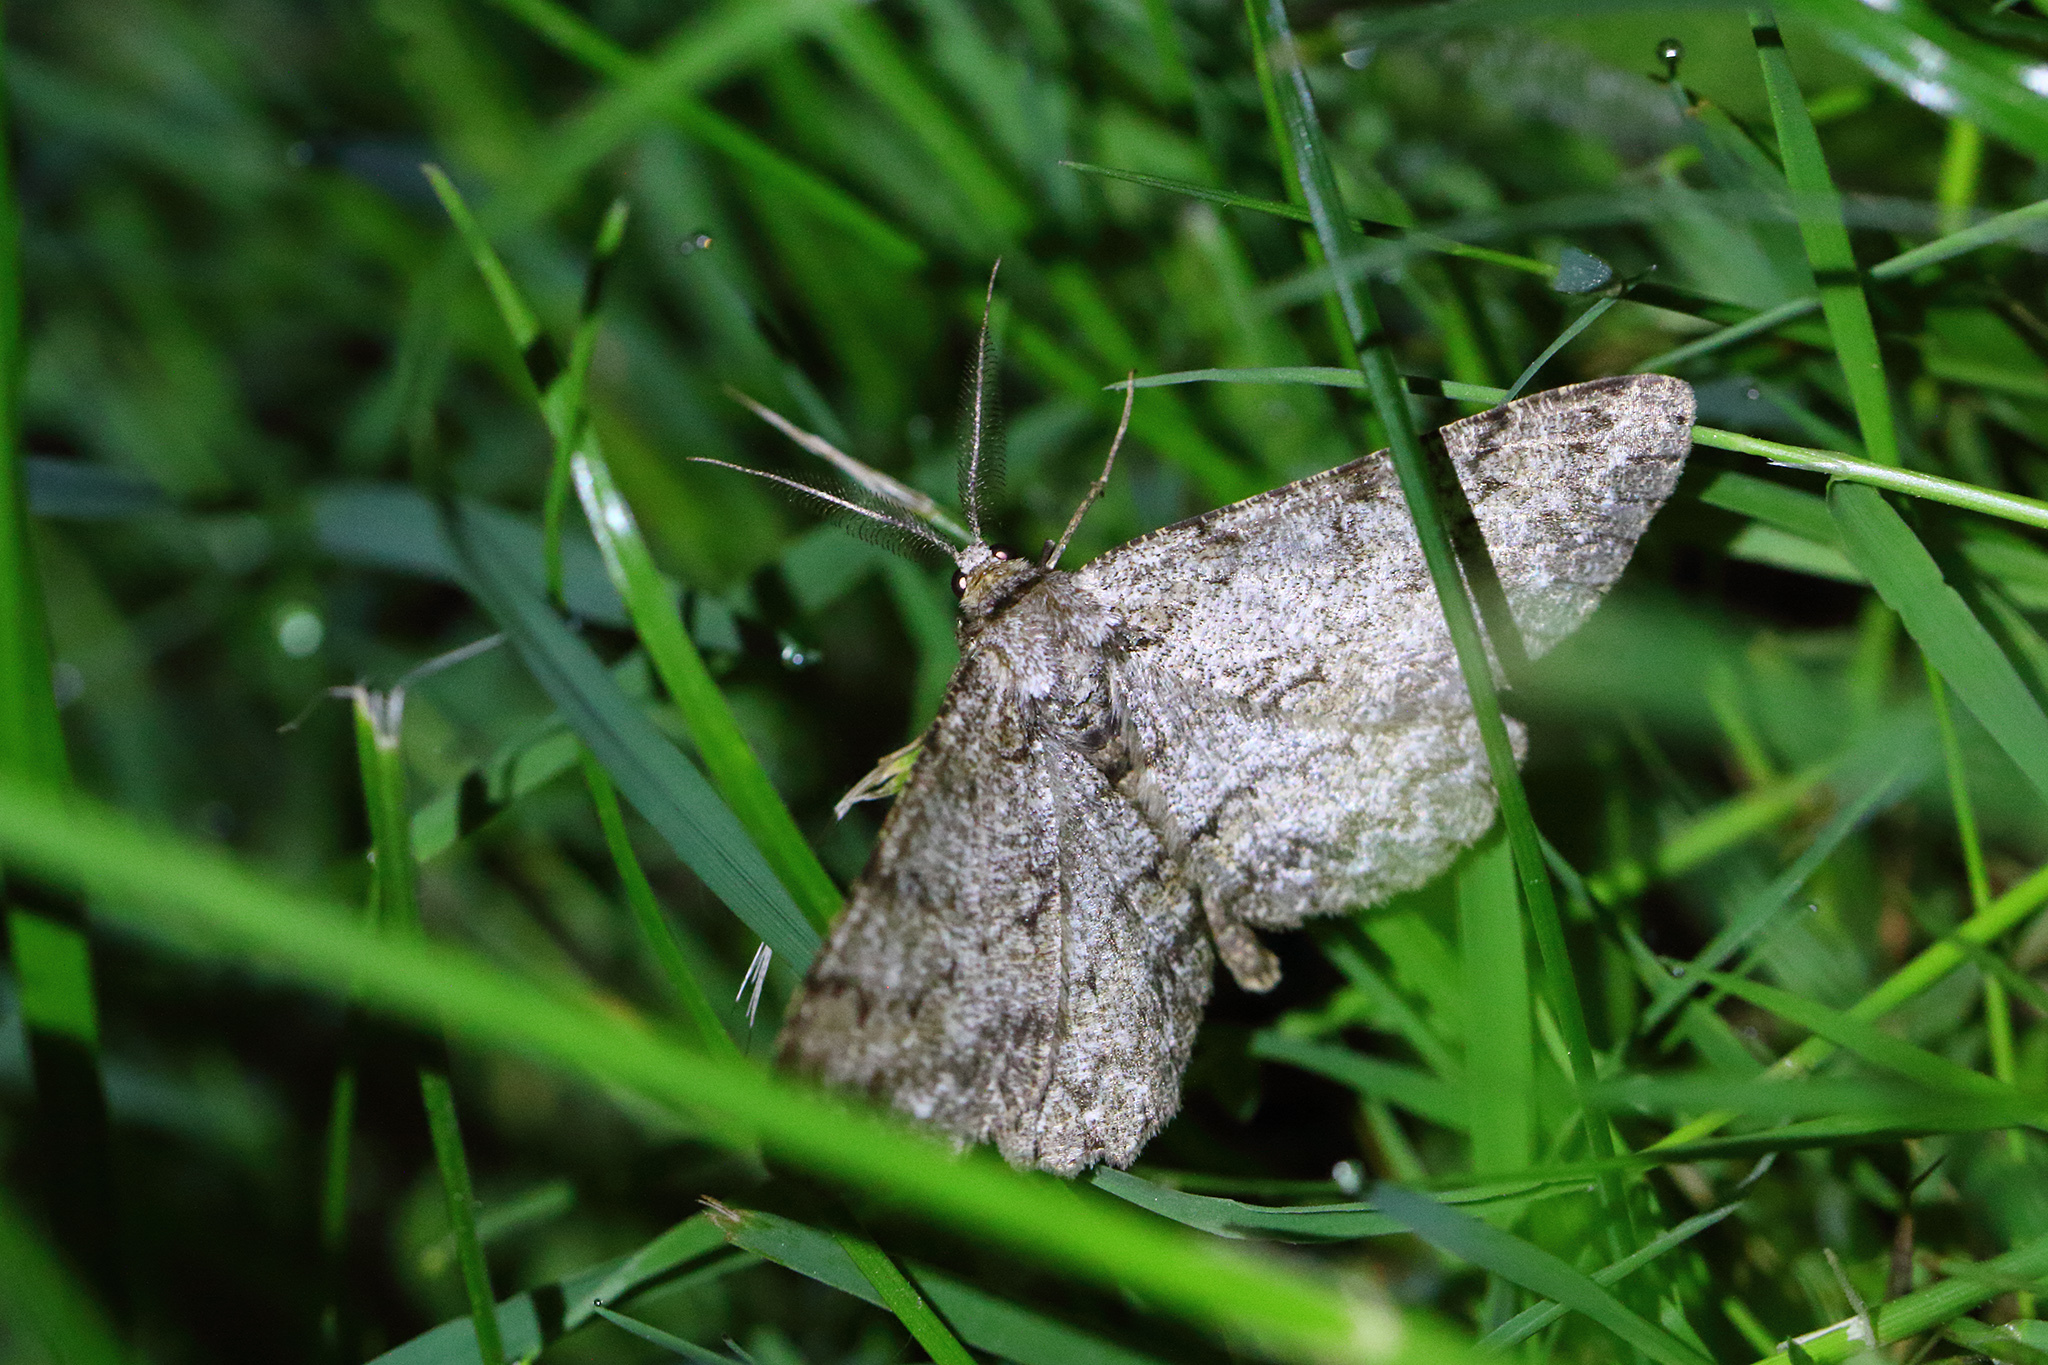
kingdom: Animalia
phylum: Arthropoda
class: Insecta
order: Lepidoptera
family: Geometridae
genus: Hypomecis
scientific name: Hypomecis punctinalis
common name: Pale oak beauty
